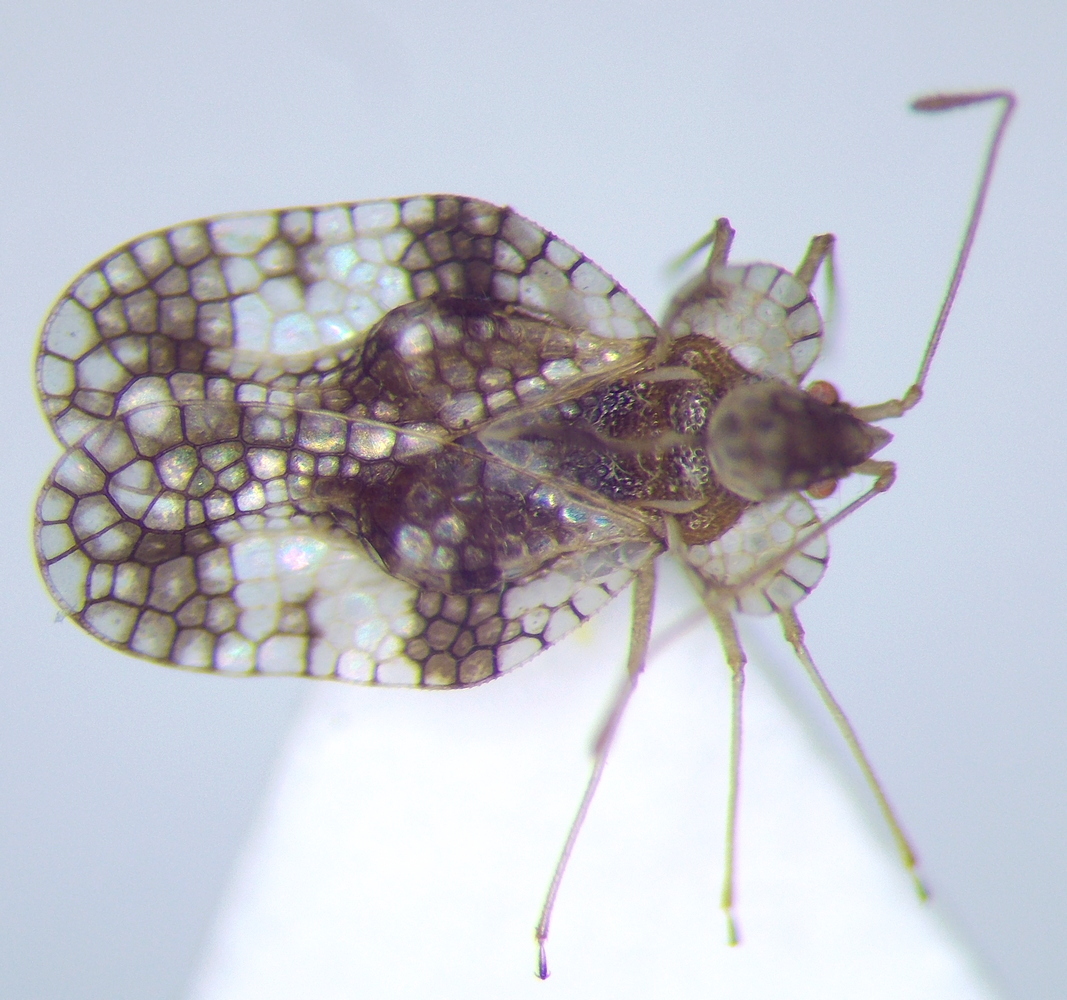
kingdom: Animalia
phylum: Arthropoda
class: Insecta
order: Hemiptera
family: Tingidae
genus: Stephanitis
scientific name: Stephanitis pyri
